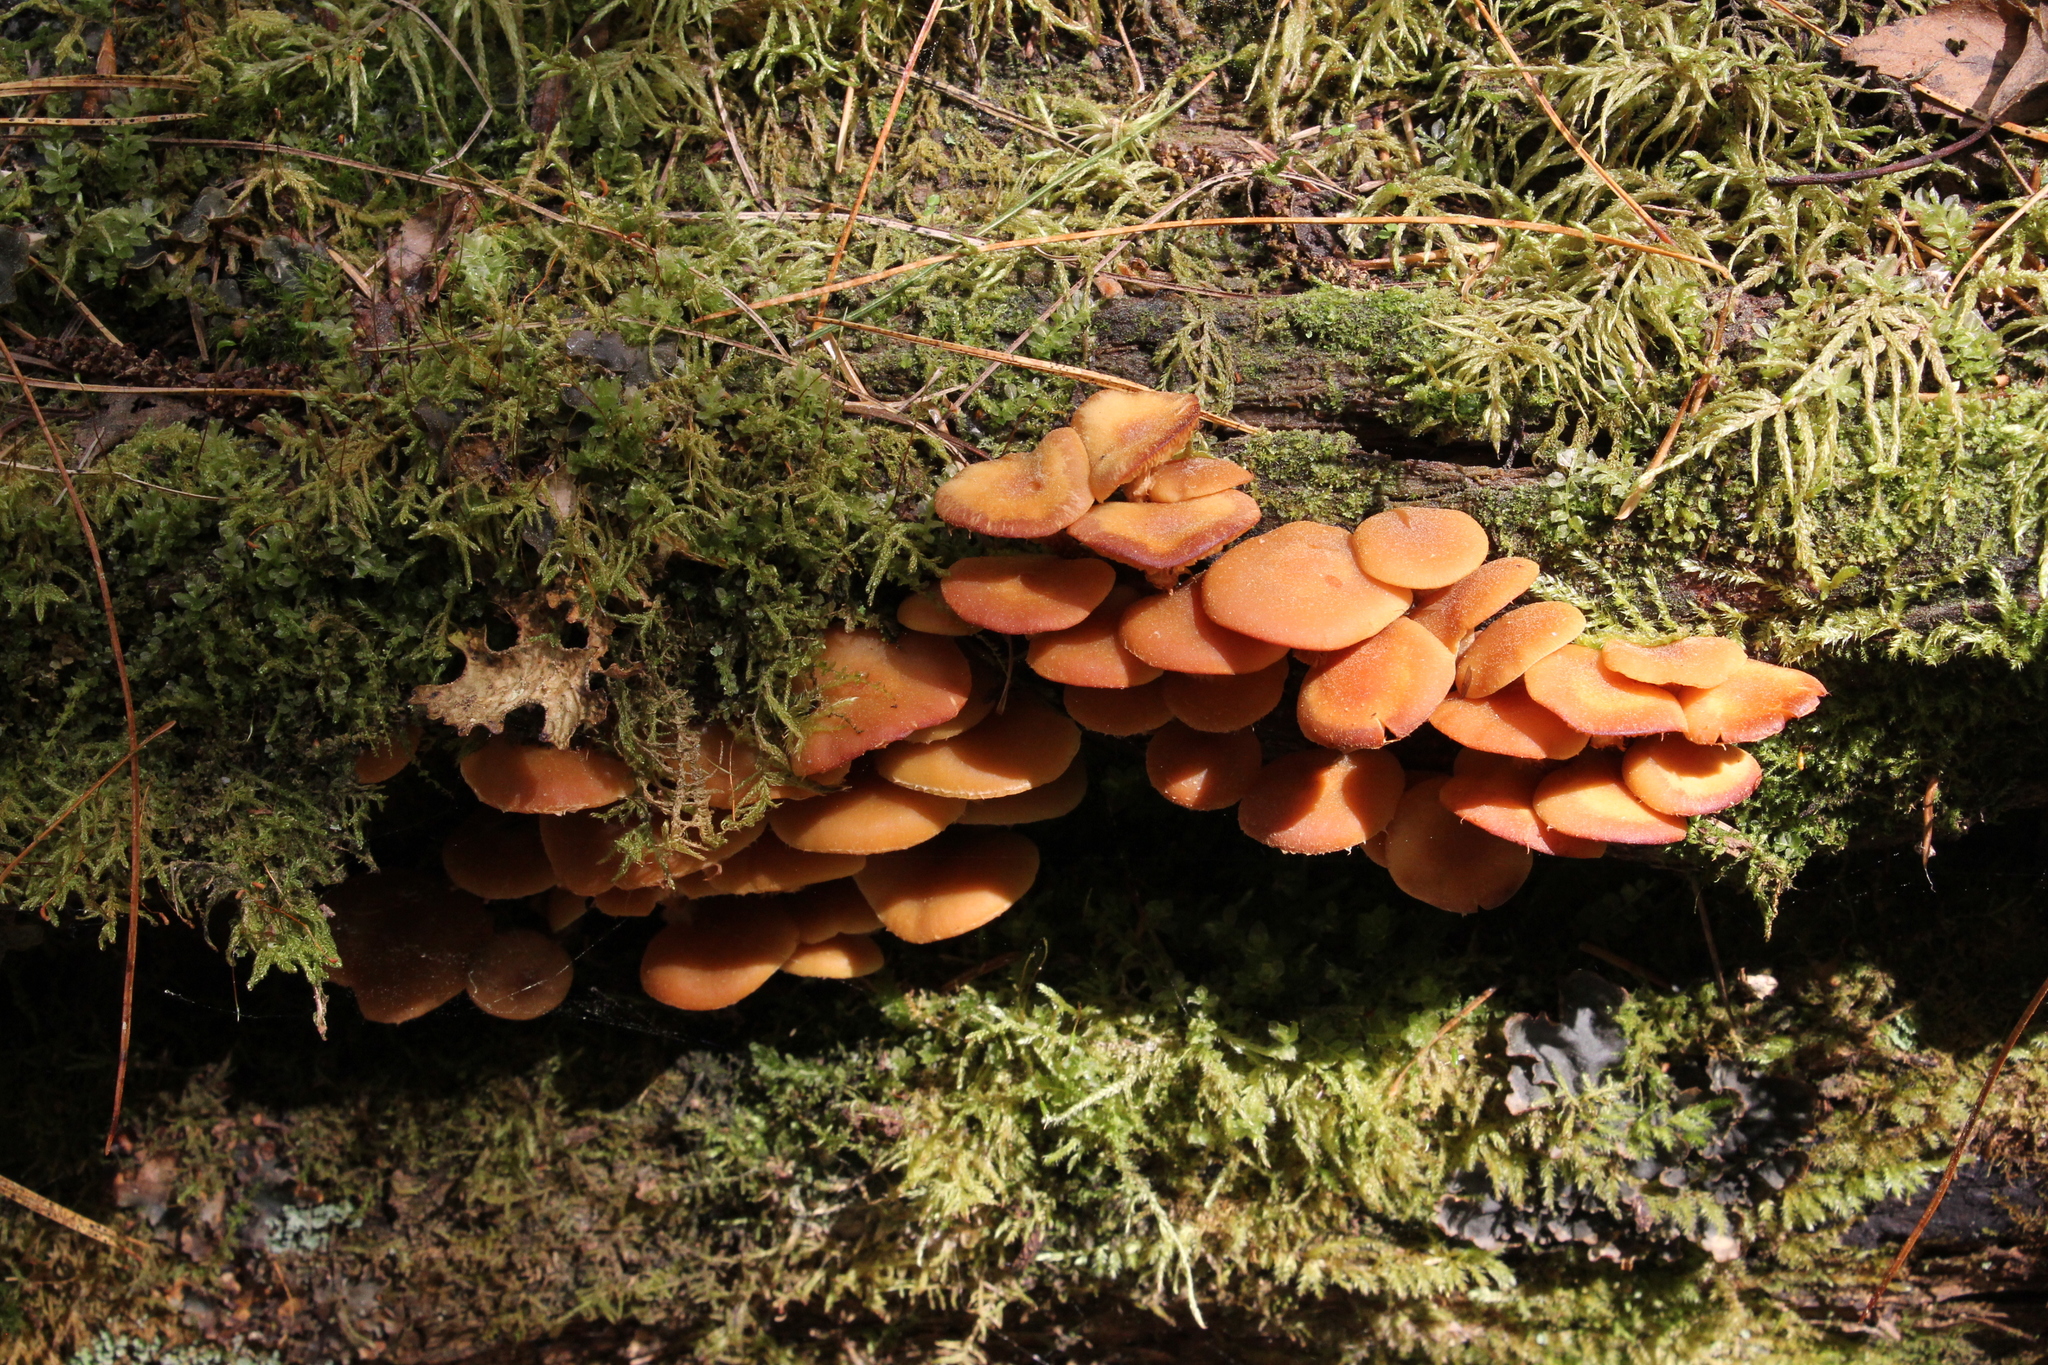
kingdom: Fungi
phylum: Basidiomycota
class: Agaricomycetes
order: Agaricales
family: Strophariaceae
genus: Kuehneromyces
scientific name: Kuehneromyces mutabilis
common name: Sheathed woodtuft
